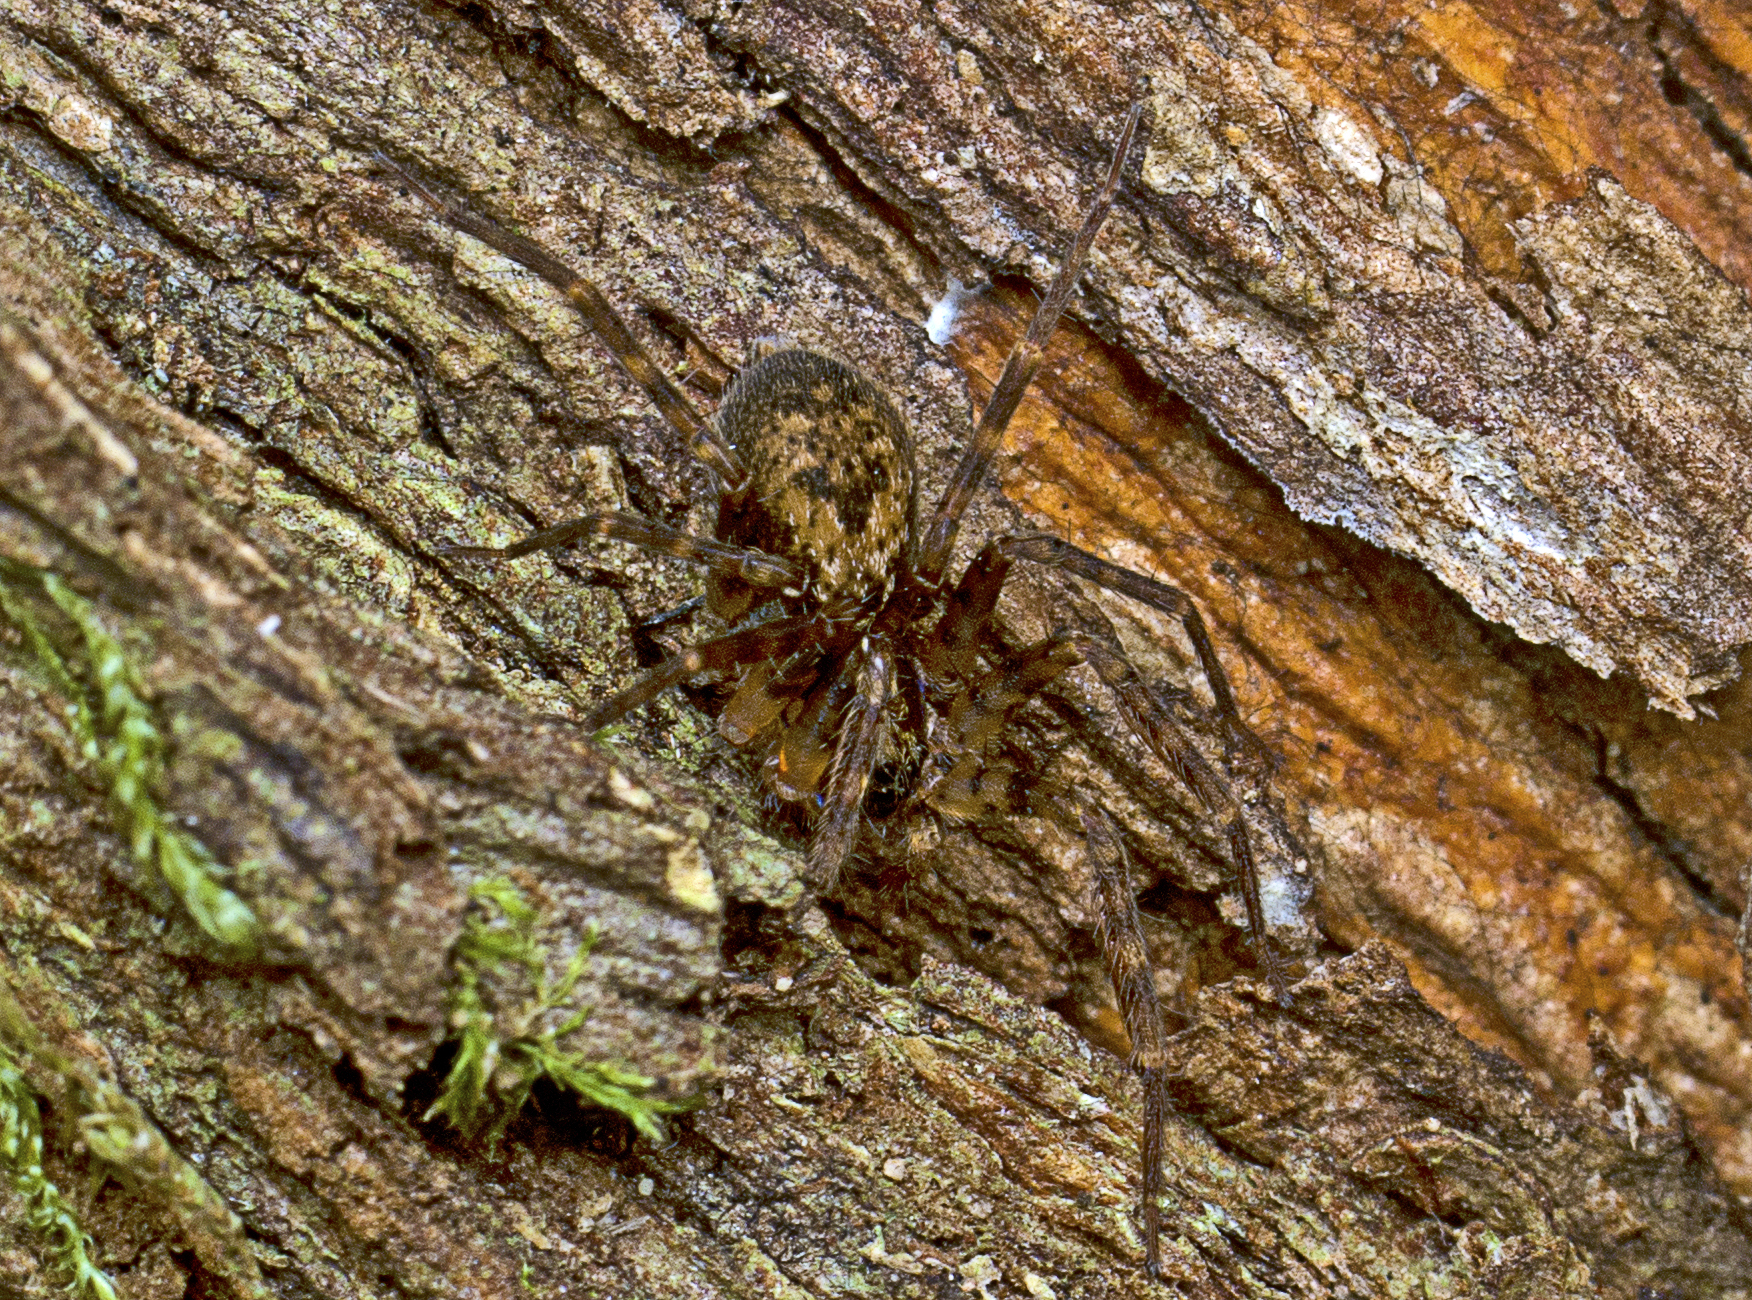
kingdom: Animalia
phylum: Arthropoda
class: Arachnida
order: Araneae
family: Toxopidae
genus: Toxopsoides
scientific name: Toxopsoides erici
